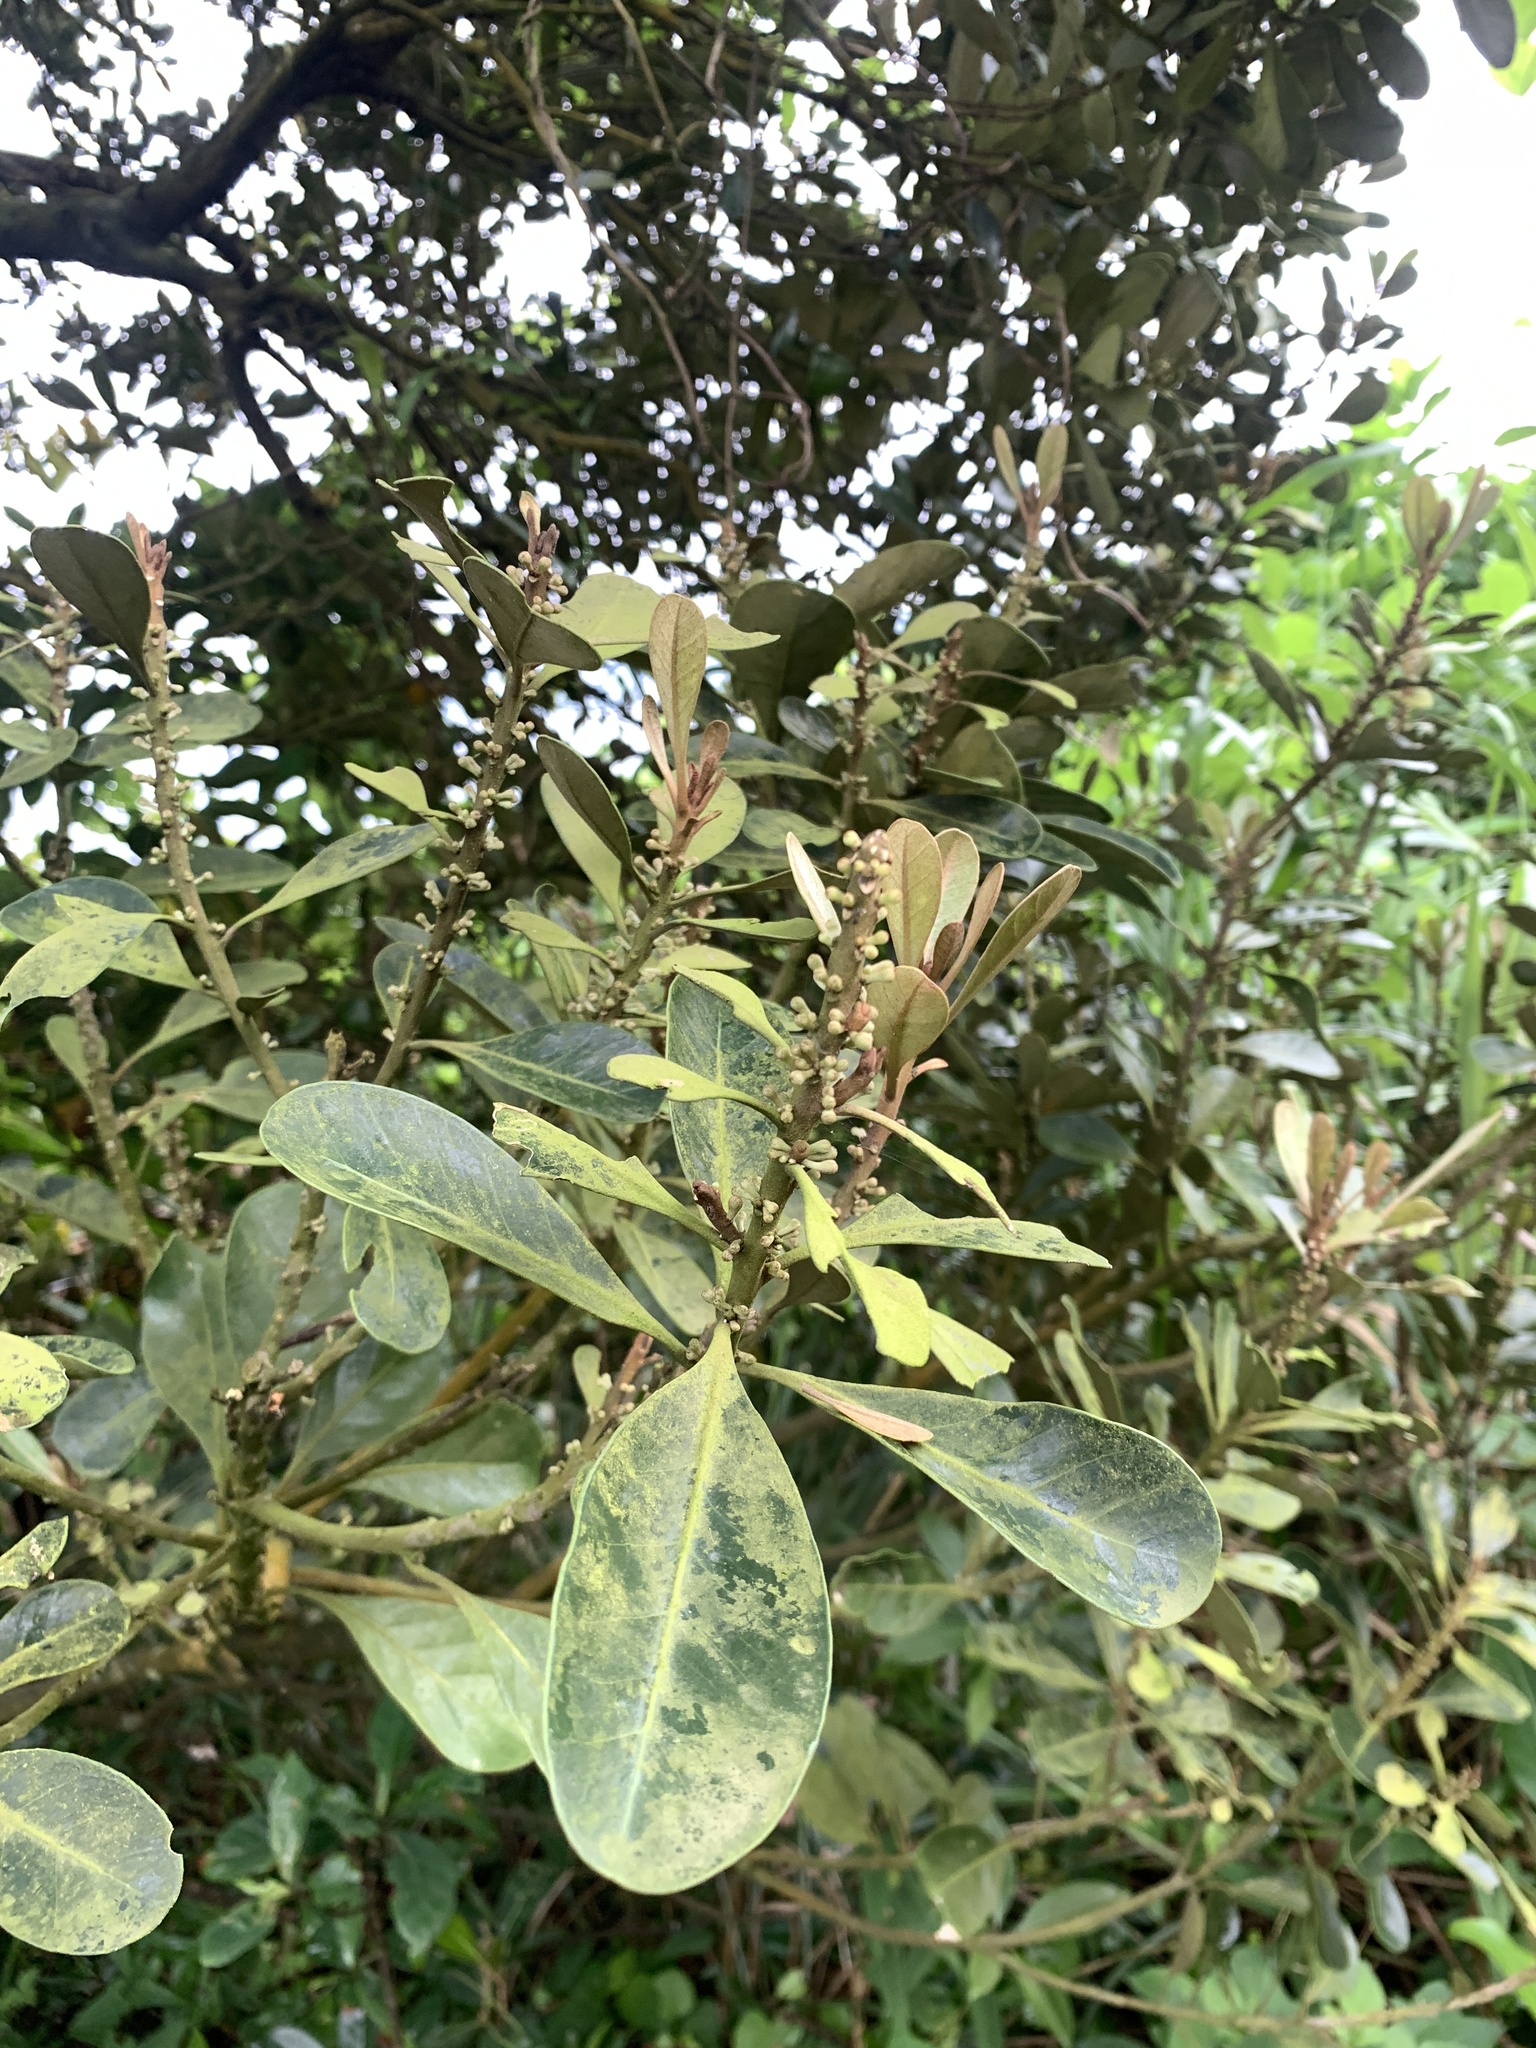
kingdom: Plantae
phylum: Tracheophyta
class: Magnoliopsida
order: Ericales
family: Sapotaceae
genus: Planchonella
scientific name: Planchonella obovata
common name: Black-ash
